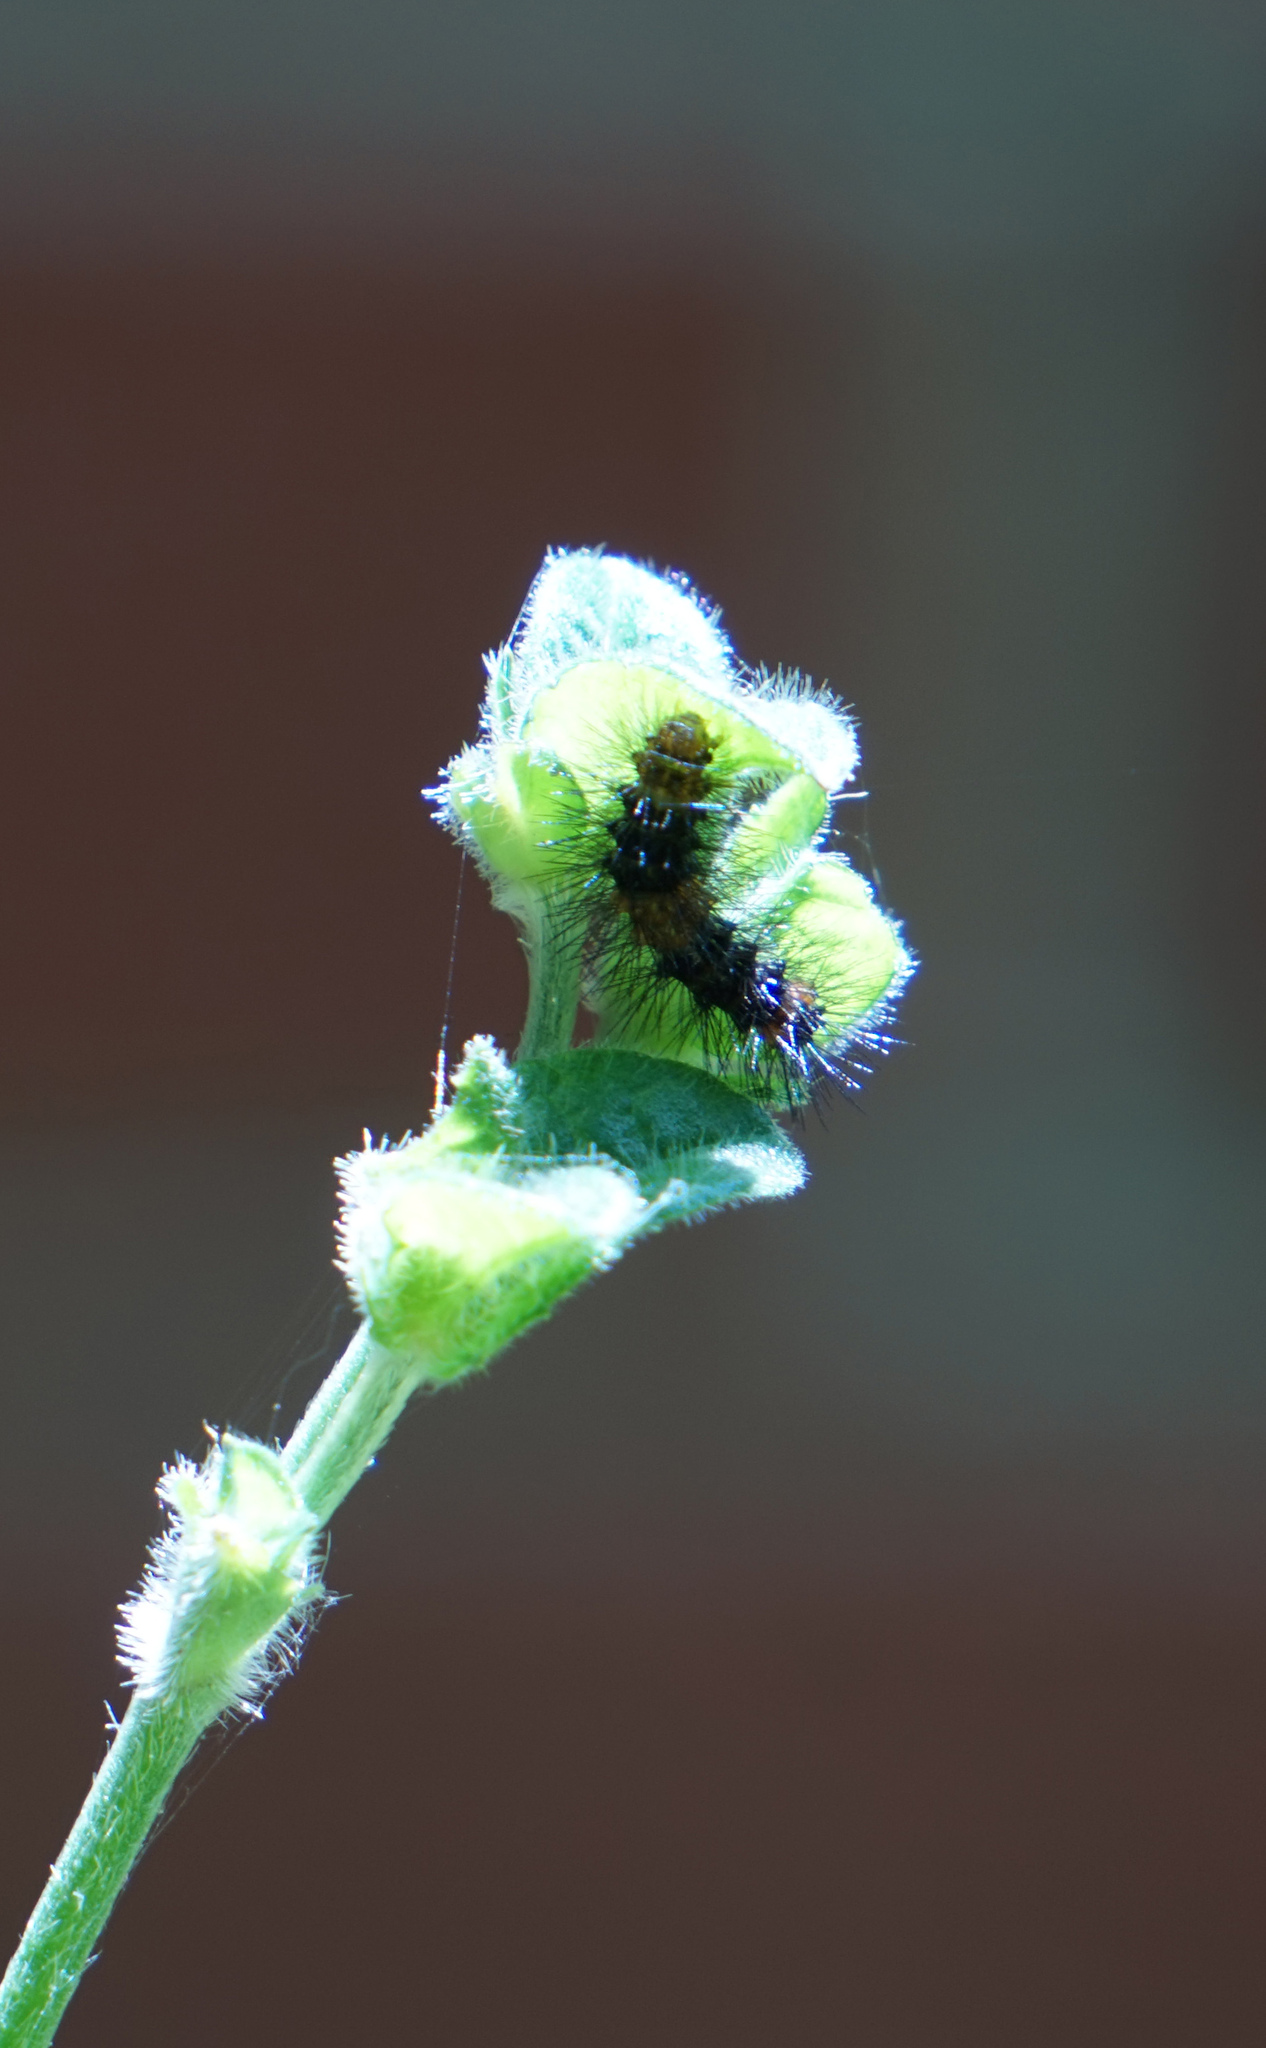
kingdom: Animalia
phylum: Arthropoda
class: Insecta
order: Lepidoptera
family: Erebidae
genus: Hypercompe
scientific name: Hypercompe scribonia
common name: Giant leopard moth
